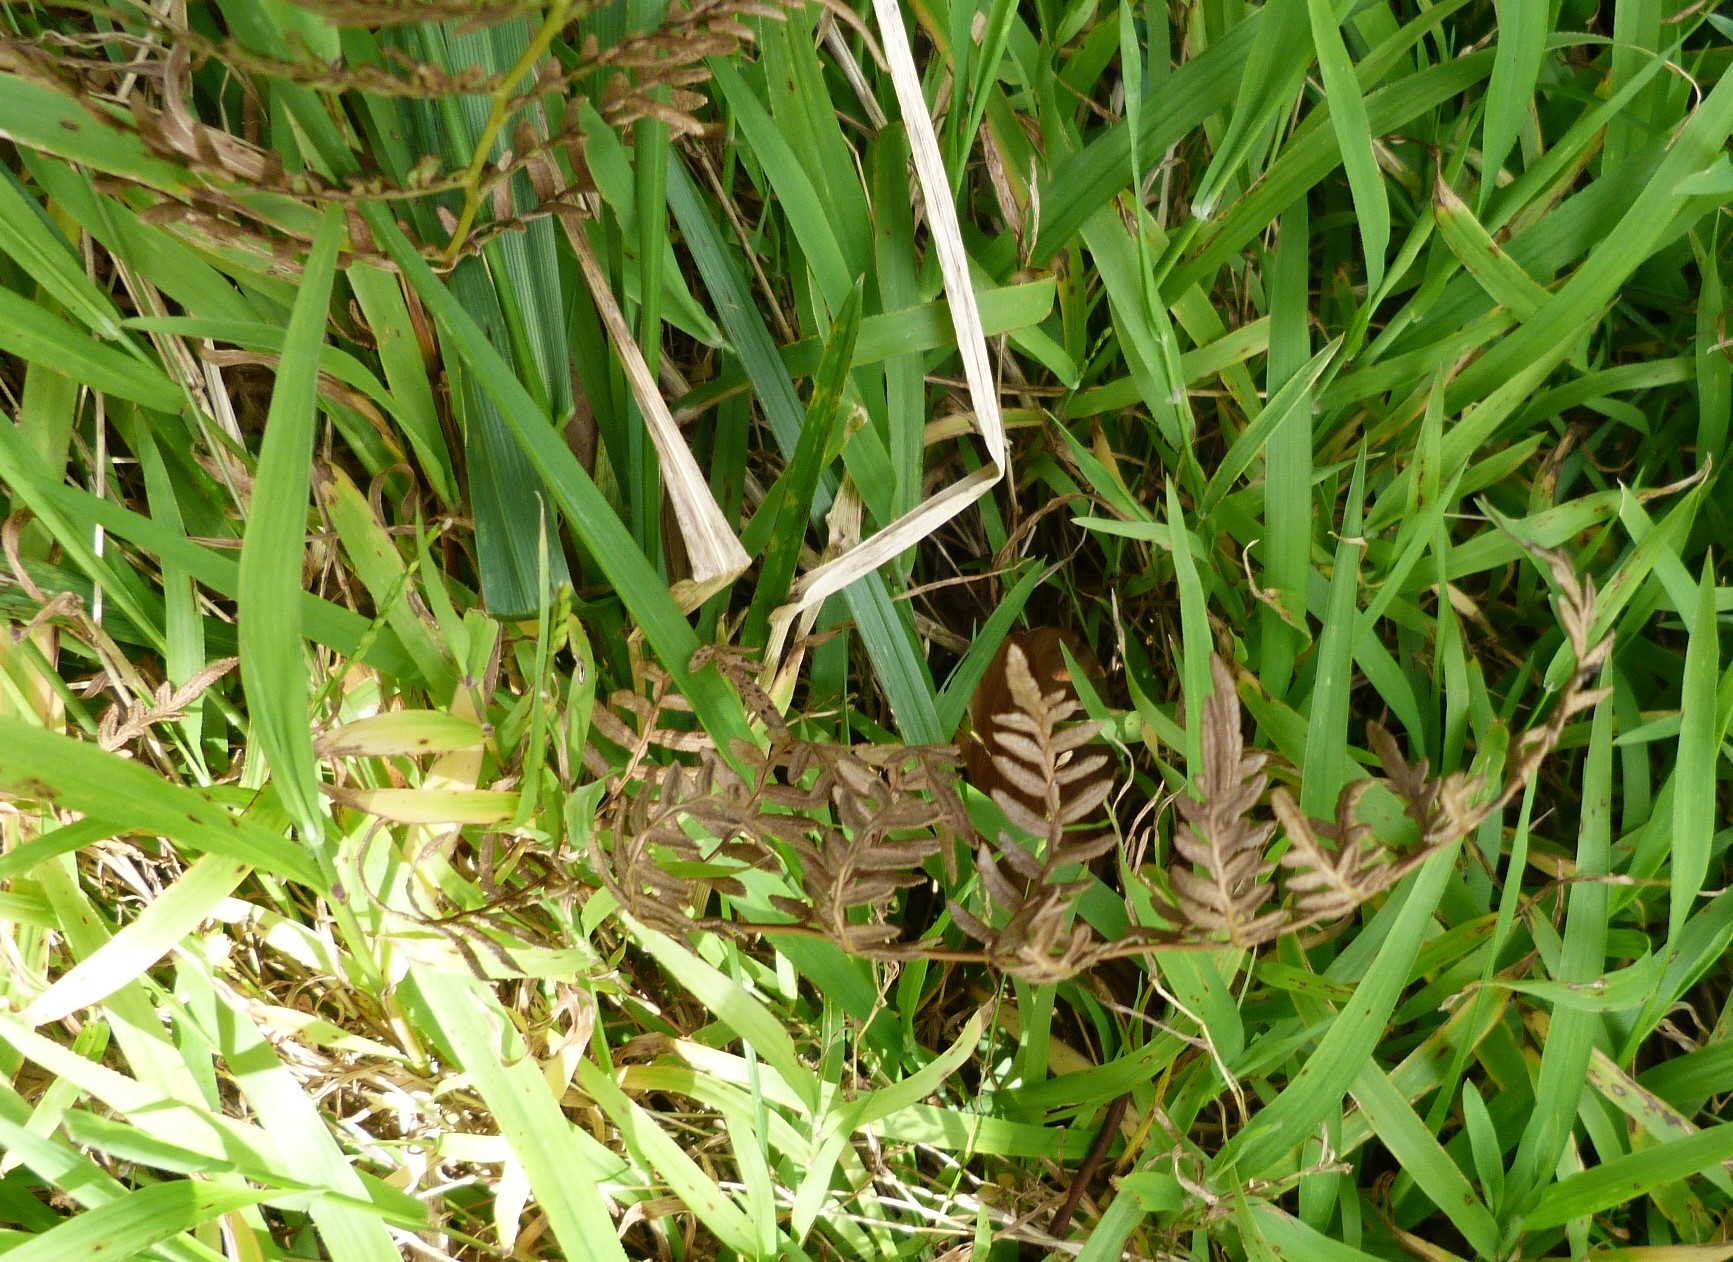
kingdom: Plantae
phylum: Tracheophyta
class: Polypodiopsida
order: Polypodiales
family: Dennstaedtiaceae
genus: Pteridium
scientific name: Pteridium esculentum
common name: Bracken fern
